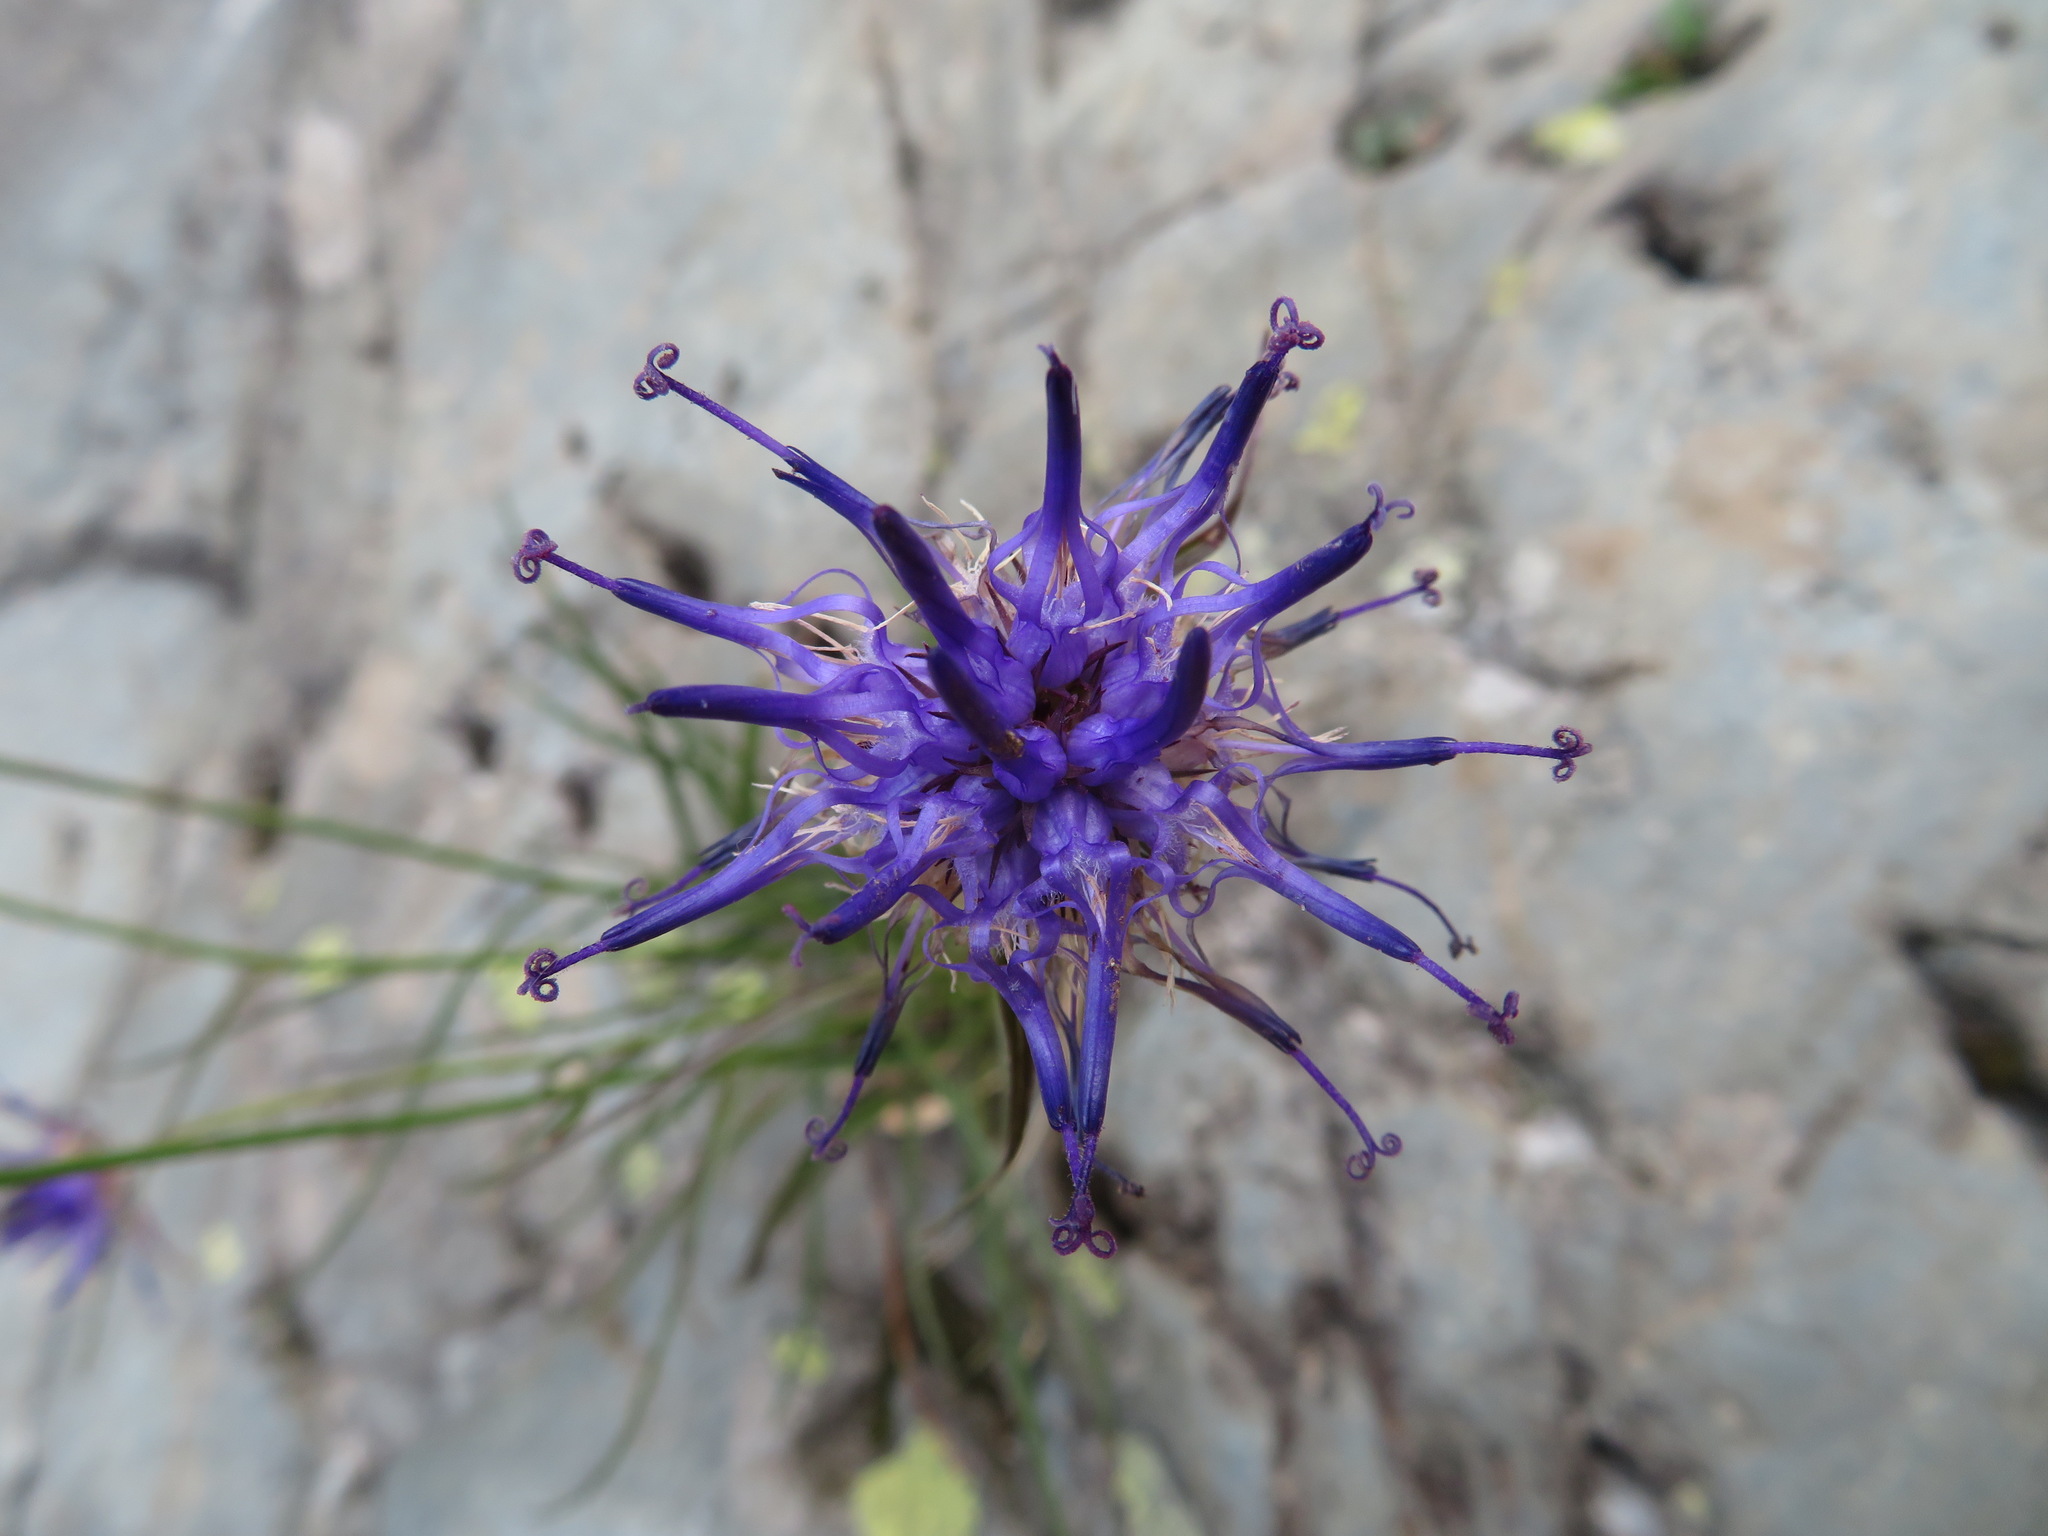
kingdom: Plantae
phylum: Tracheophyta
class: Magnoliopsida
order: Asterales
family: Campanulaceae
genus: Phyteuma
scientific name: Phyteuma scheuchzeri
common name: Oxford rampion
